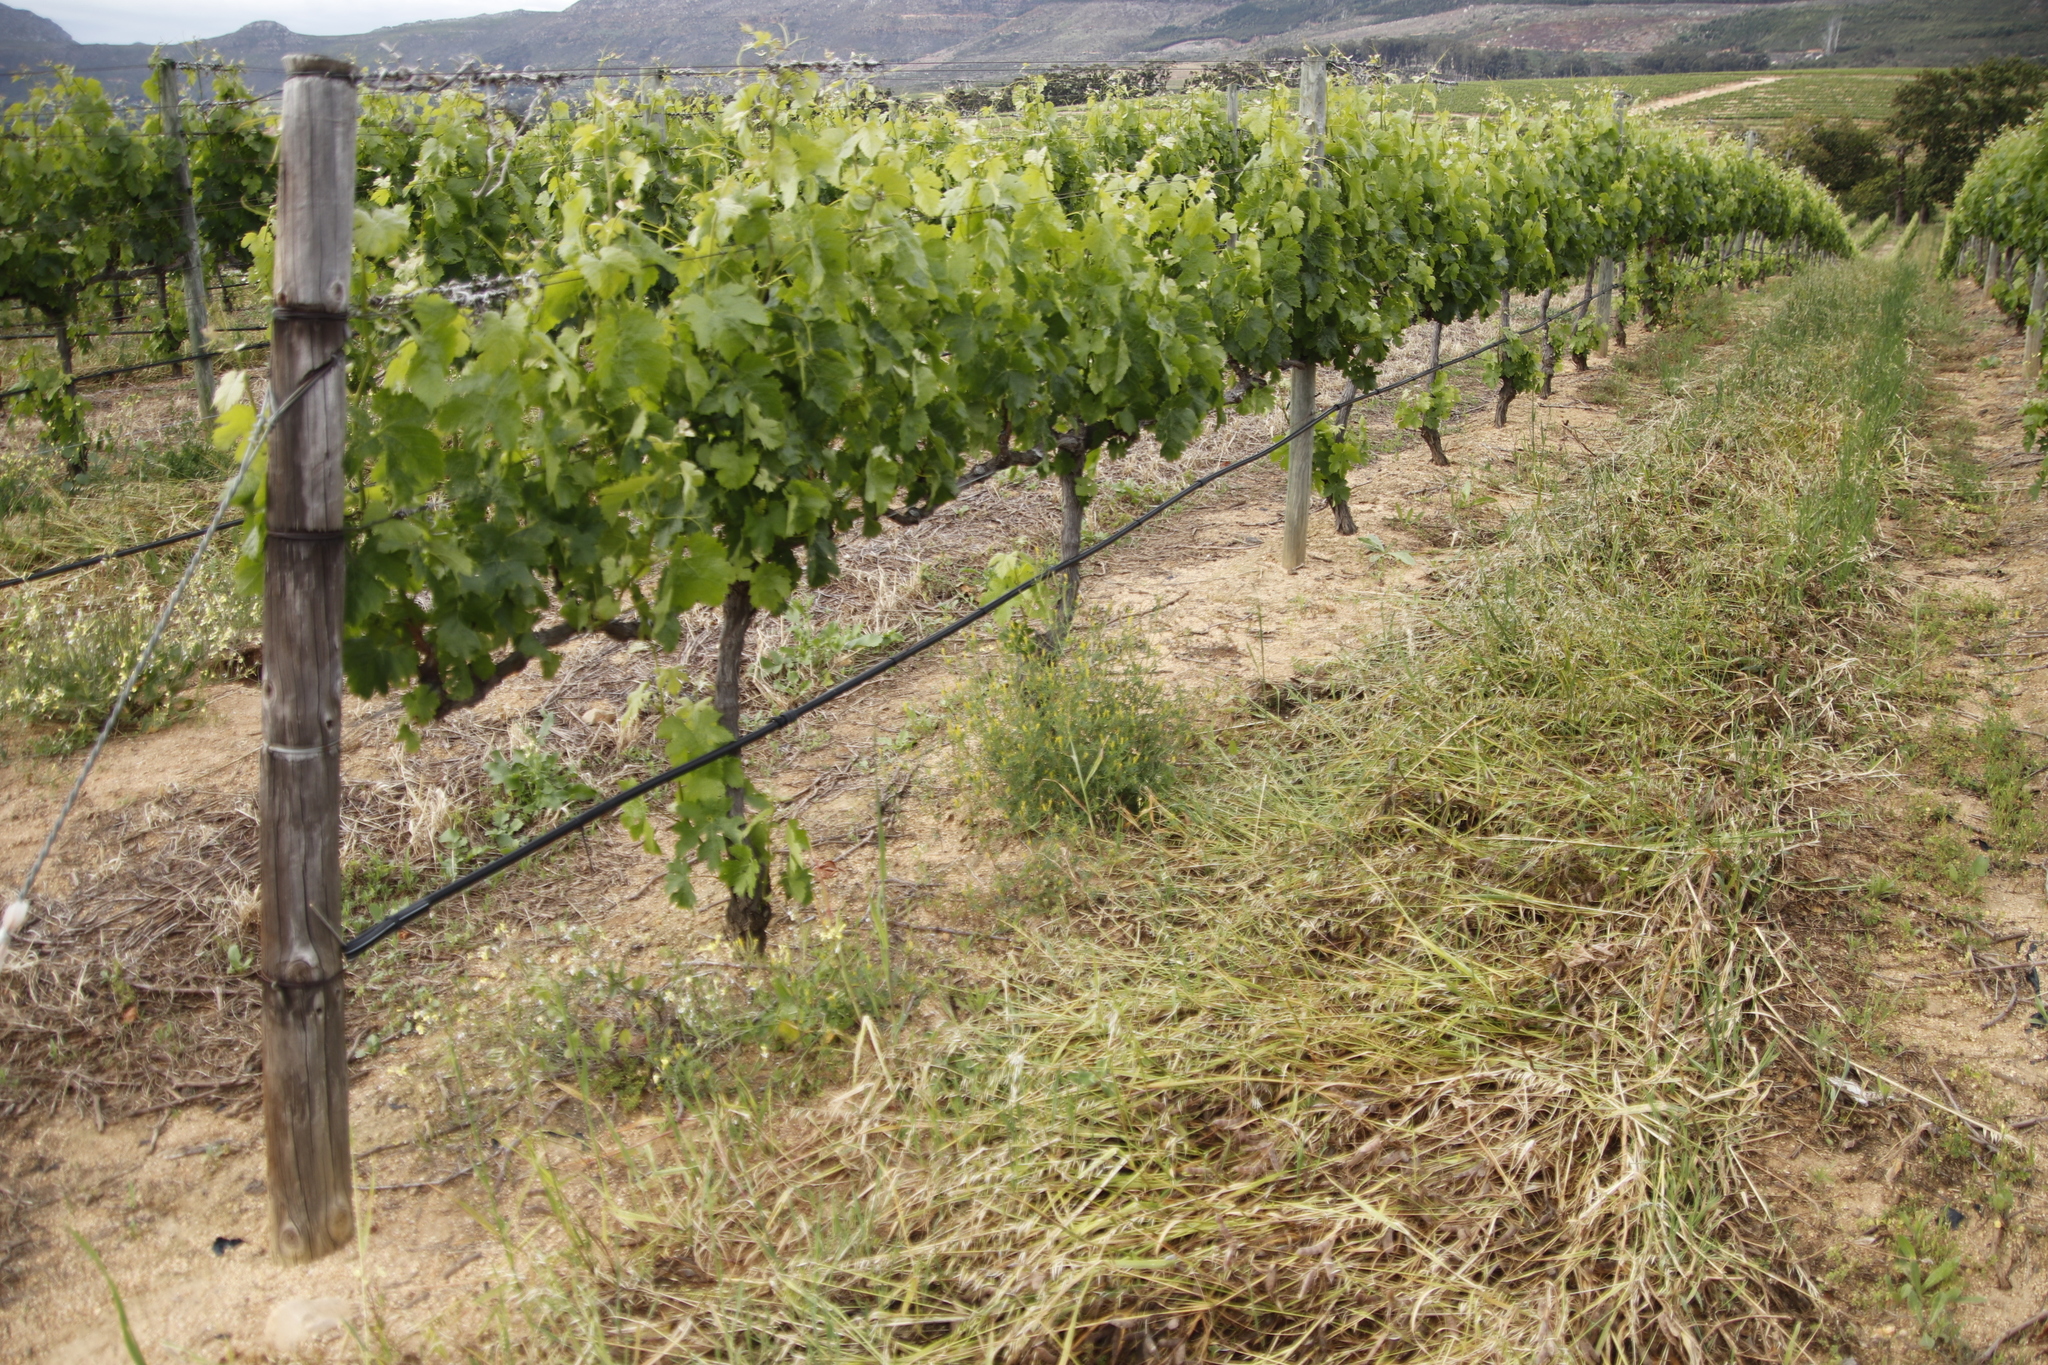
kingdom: Plantae
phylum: Tracheophyta
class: Magnoliopsida
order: Fabales
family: Fabaceae
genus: Melilotus
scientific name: Melilotus indicus
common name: Small melilot
